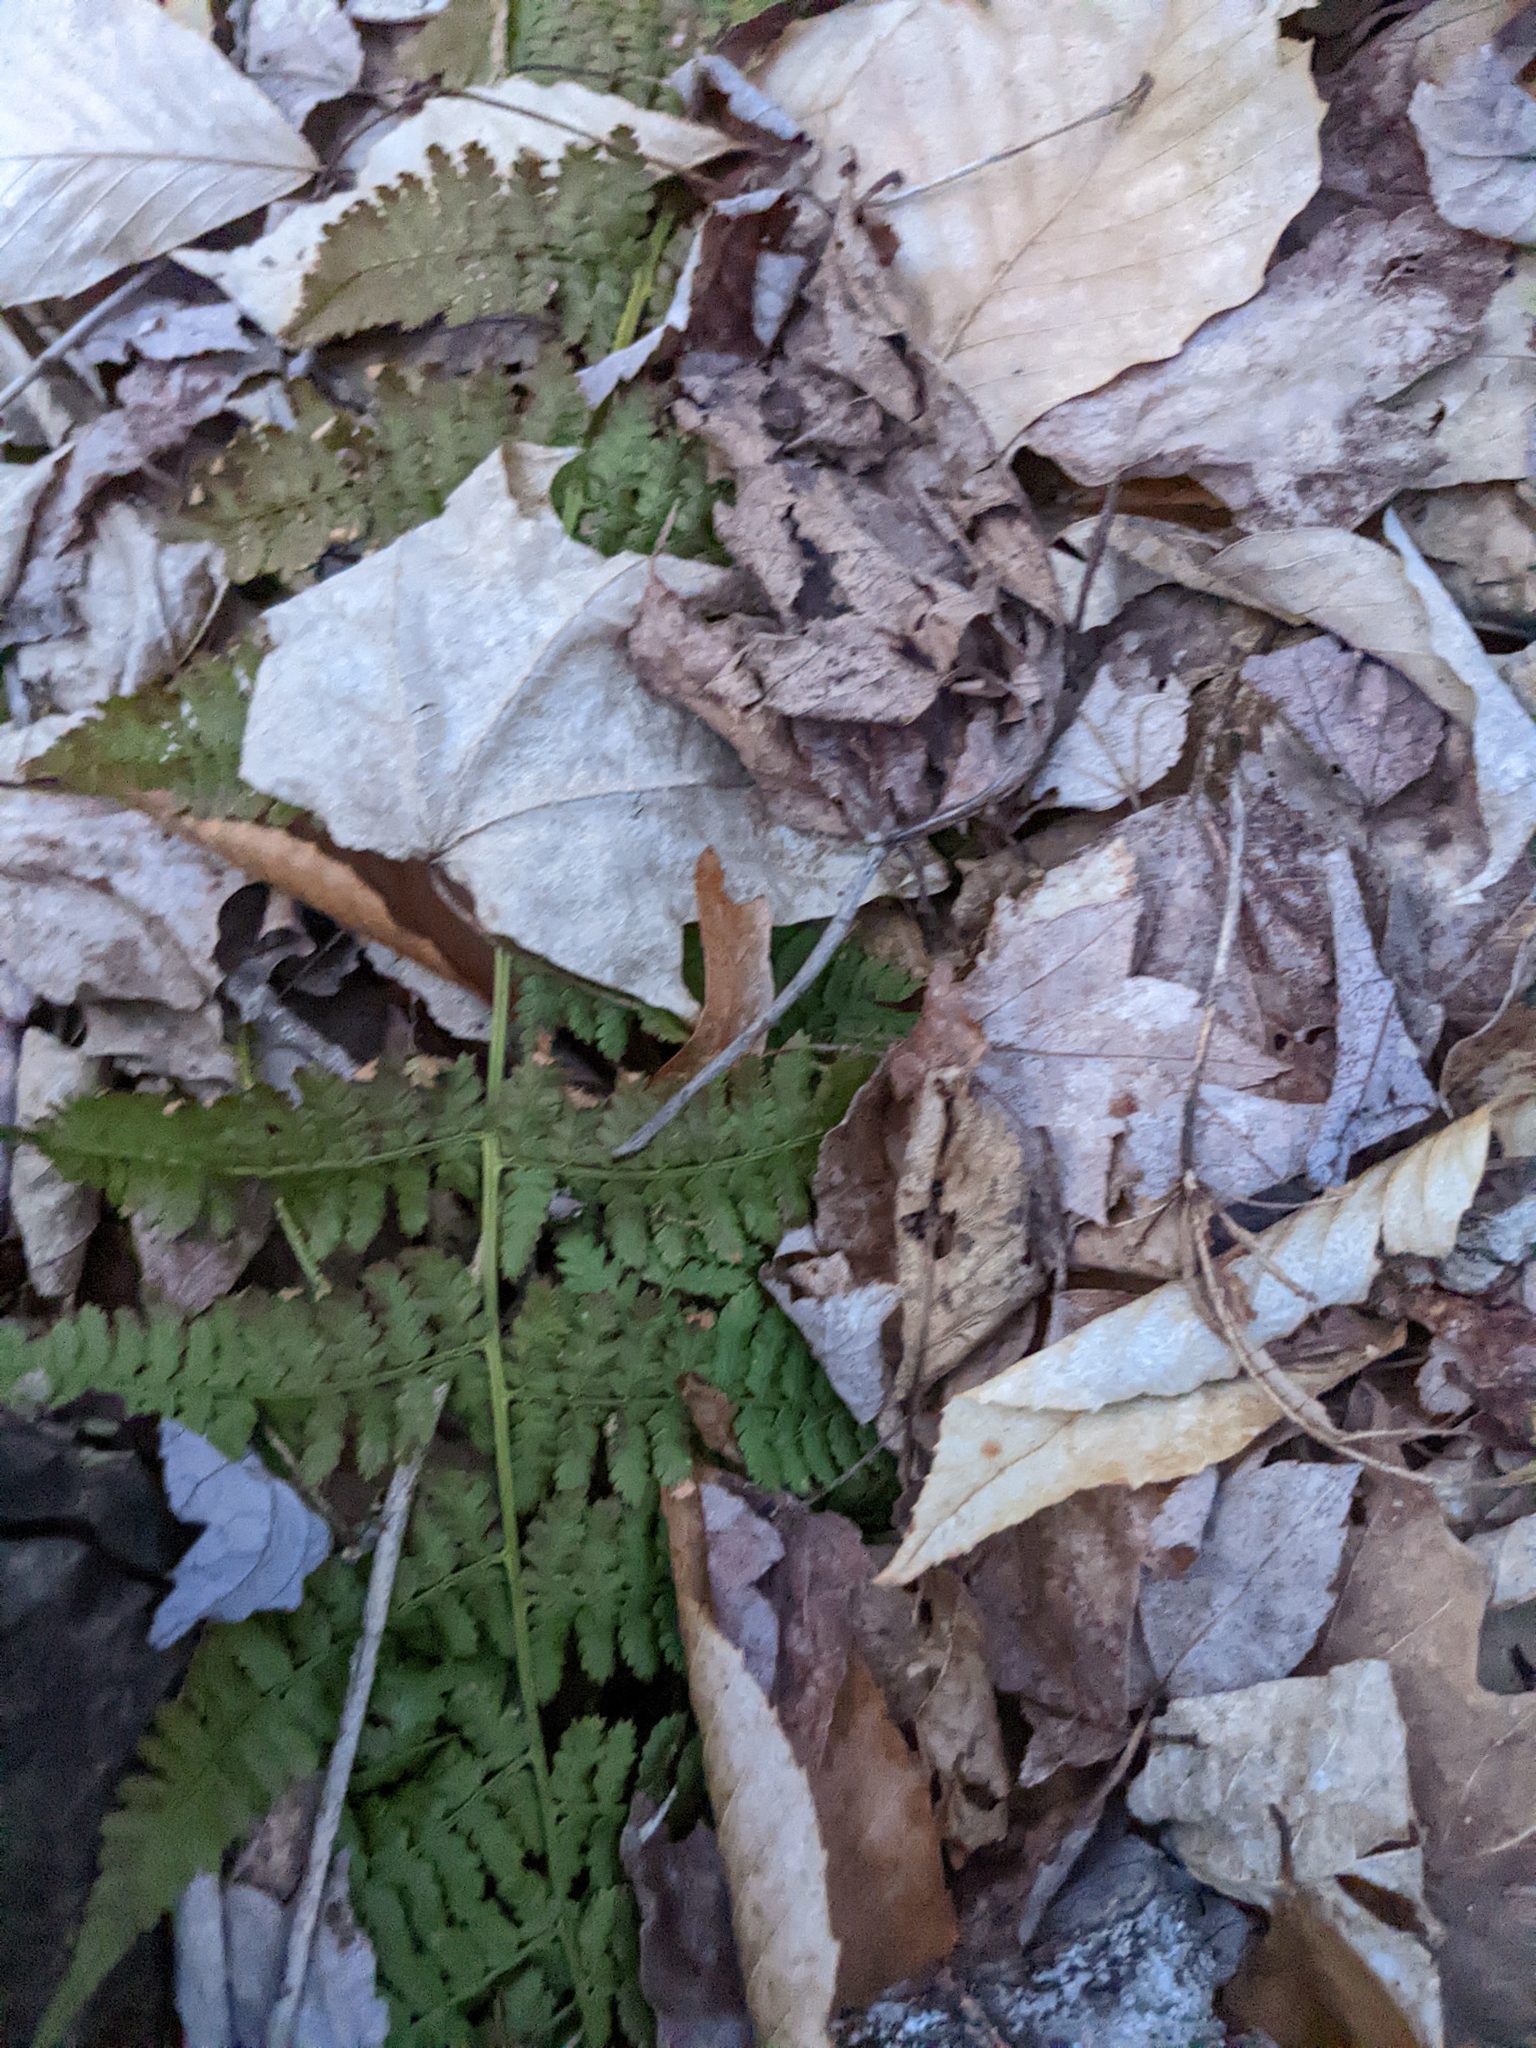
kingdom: Plantae
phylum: Tracheophyta
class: Polypodiopsida
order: Polypodiales
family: Dryopteridaceae
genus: Dryopteris
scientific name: Dryopteris intermedia
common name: Evergreen wood fern
